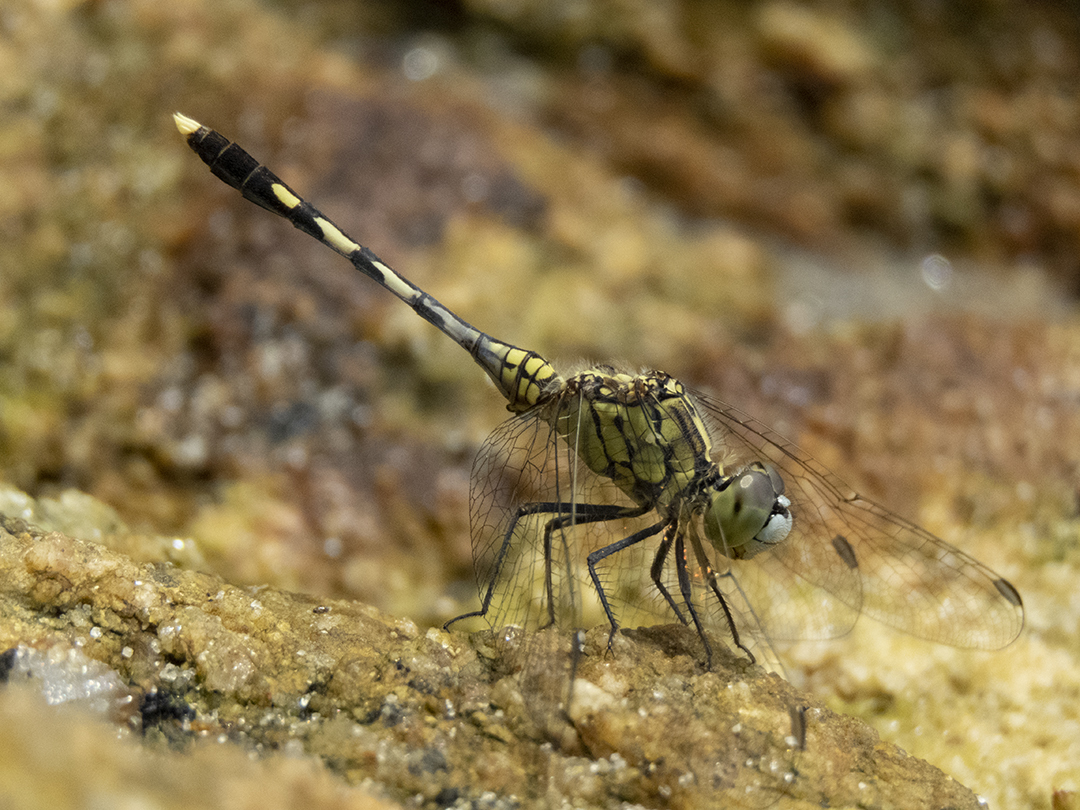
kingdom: Animalia
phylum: Arthropoda
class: Insecta
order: Odonata
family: Libellulidae
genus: Orthetrum
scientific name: Orthetrum sabina
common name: Slender skimmer
